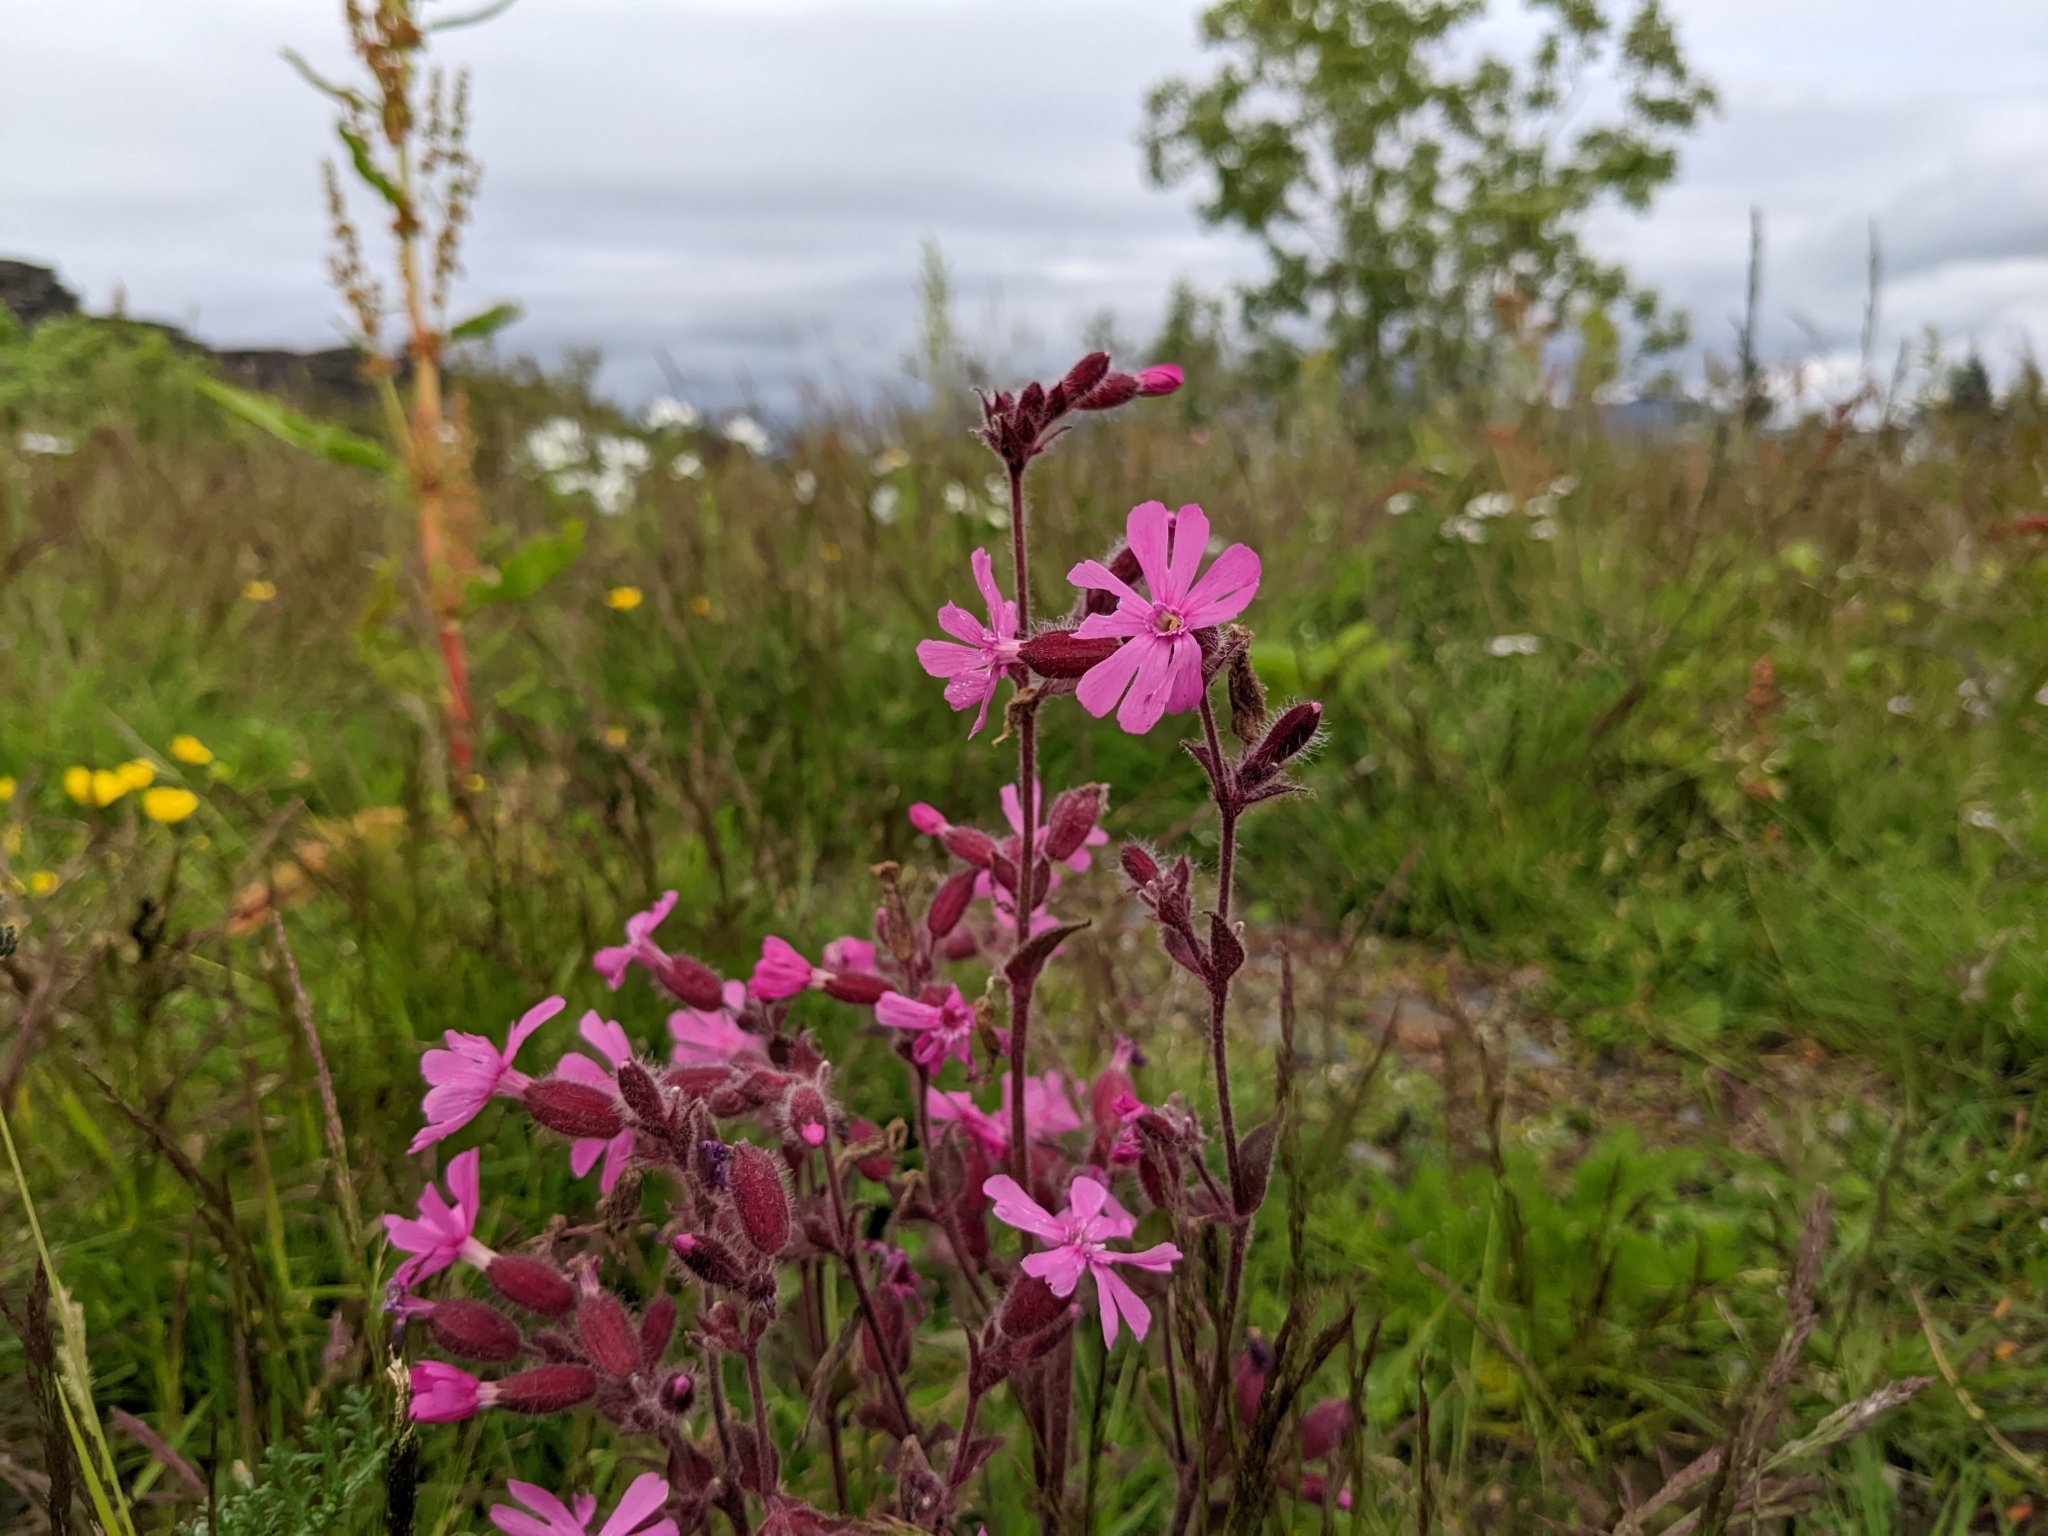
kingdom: Plantae
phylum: Tracheophyta
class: Magnoliopsida
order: Caryophyllales
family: Caryophyllaceae
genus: Silene
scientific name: Silene dioica
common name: Red campion
